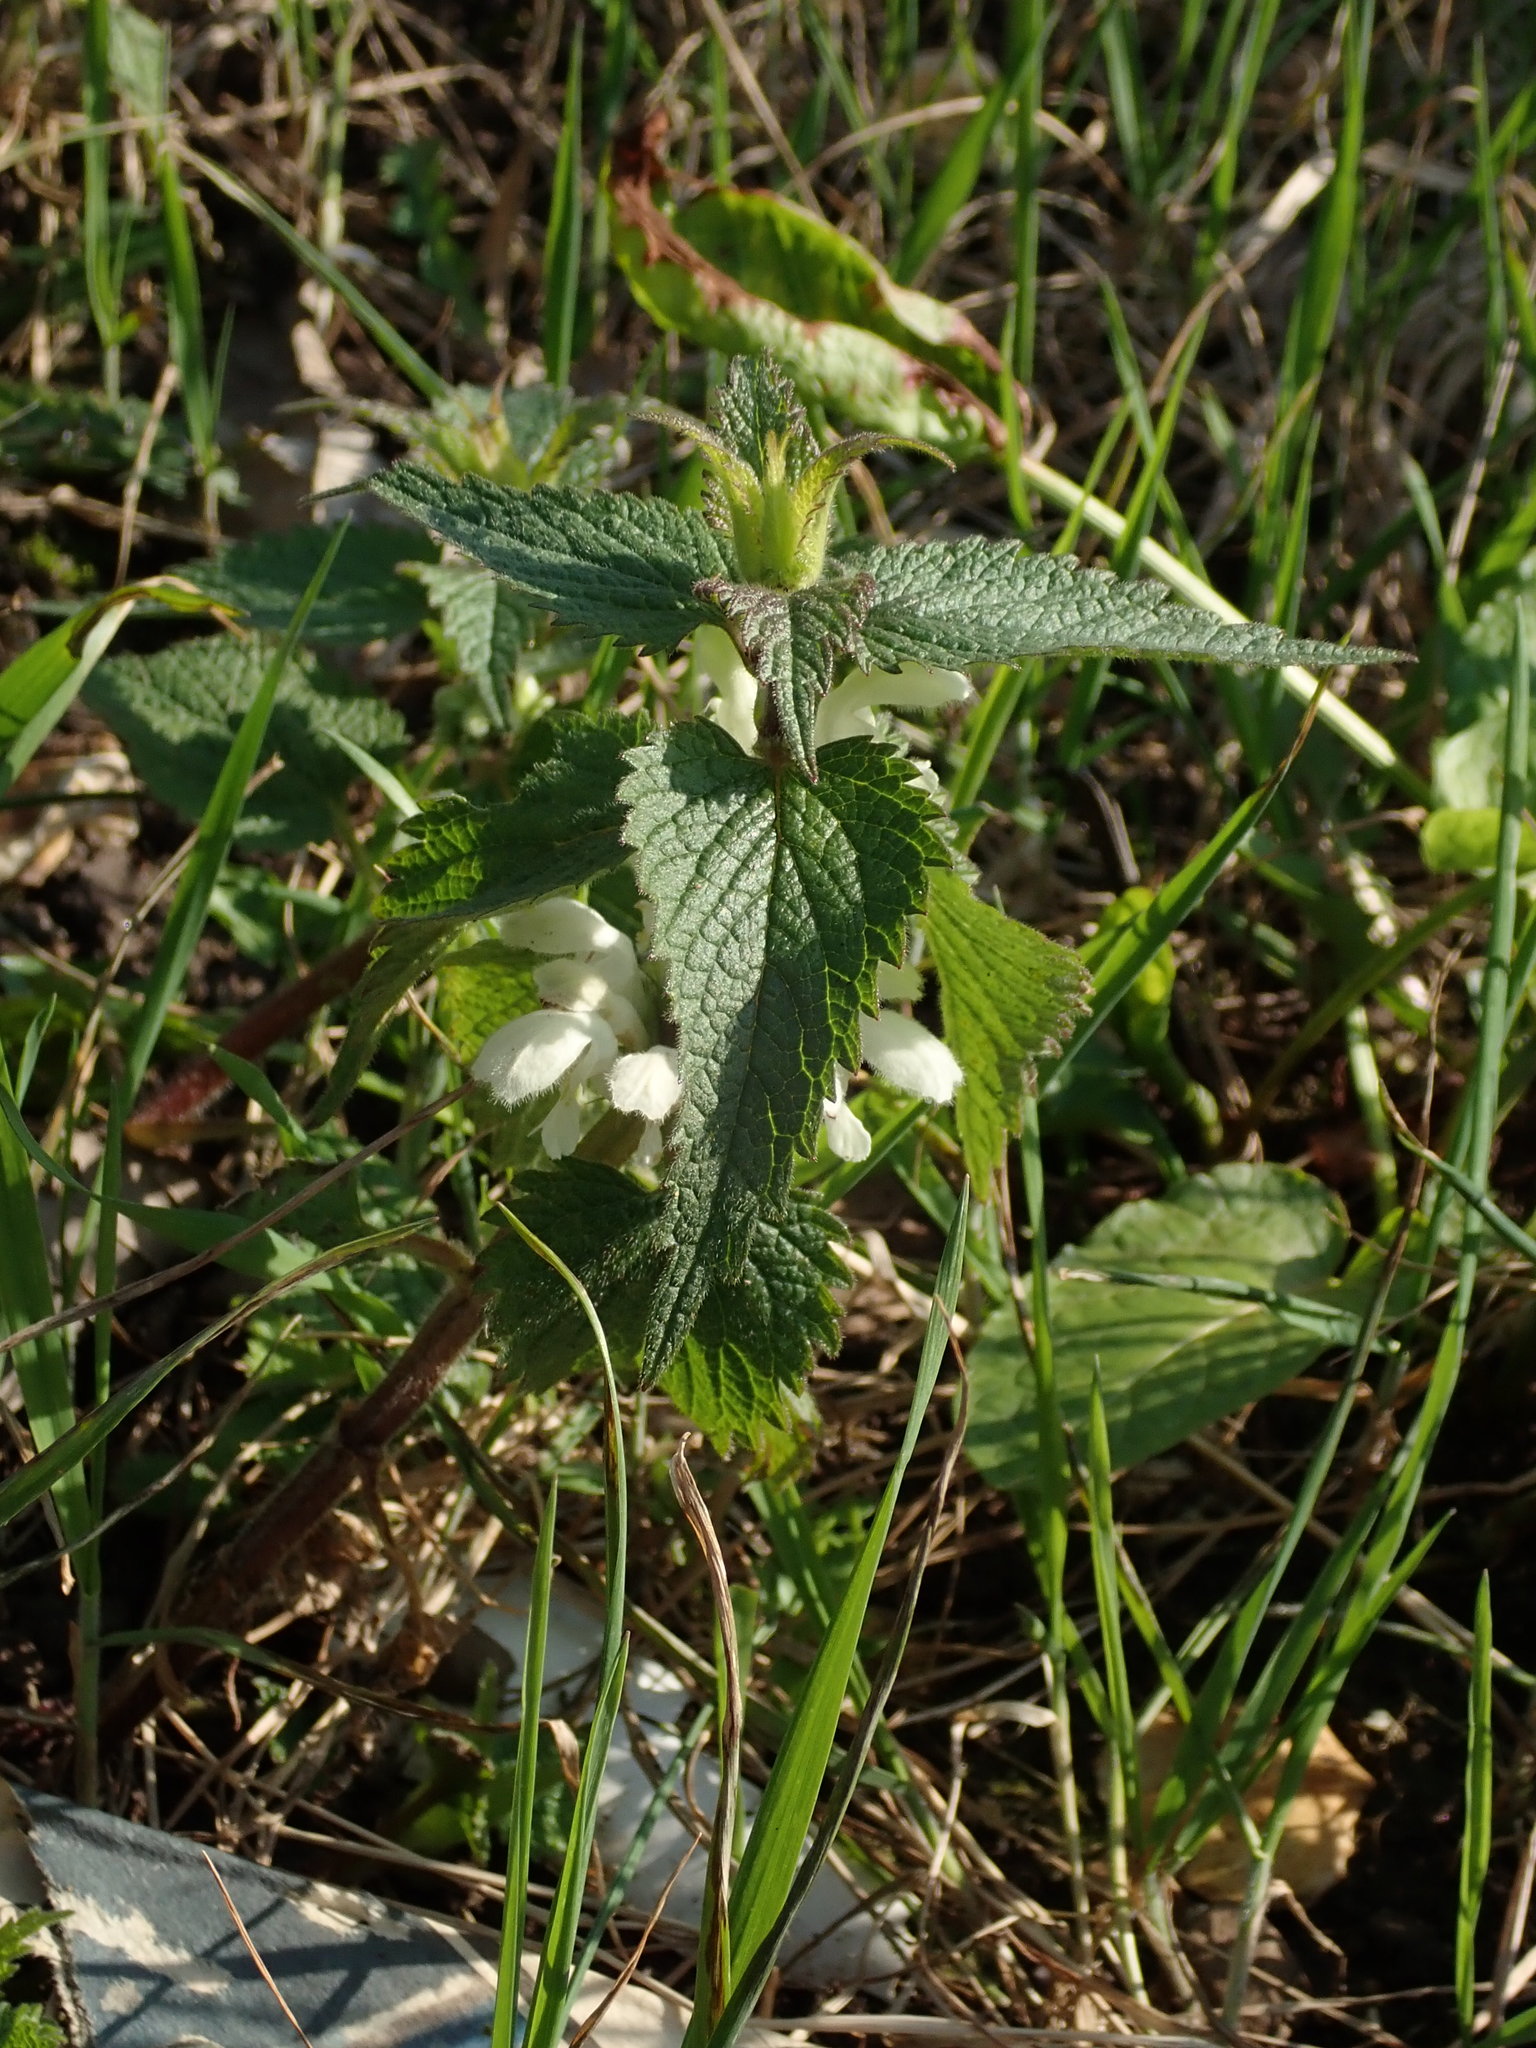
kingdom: Plantae
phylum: Tracheophyta
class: Magnoliopsida
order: Lamiales
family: Lamiaceae
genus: Lamium
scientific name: Lamium album
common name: White dead-nettle
